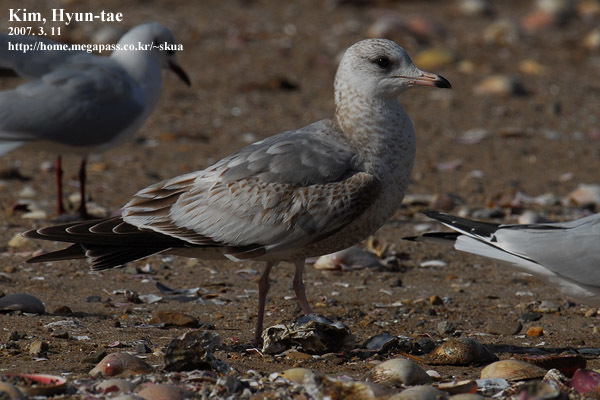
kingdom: Animalia
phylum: Chordata
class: Aves
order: Charadriiformes
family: Laridae
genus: Larus
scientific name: Larus canus
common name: Mew gull
